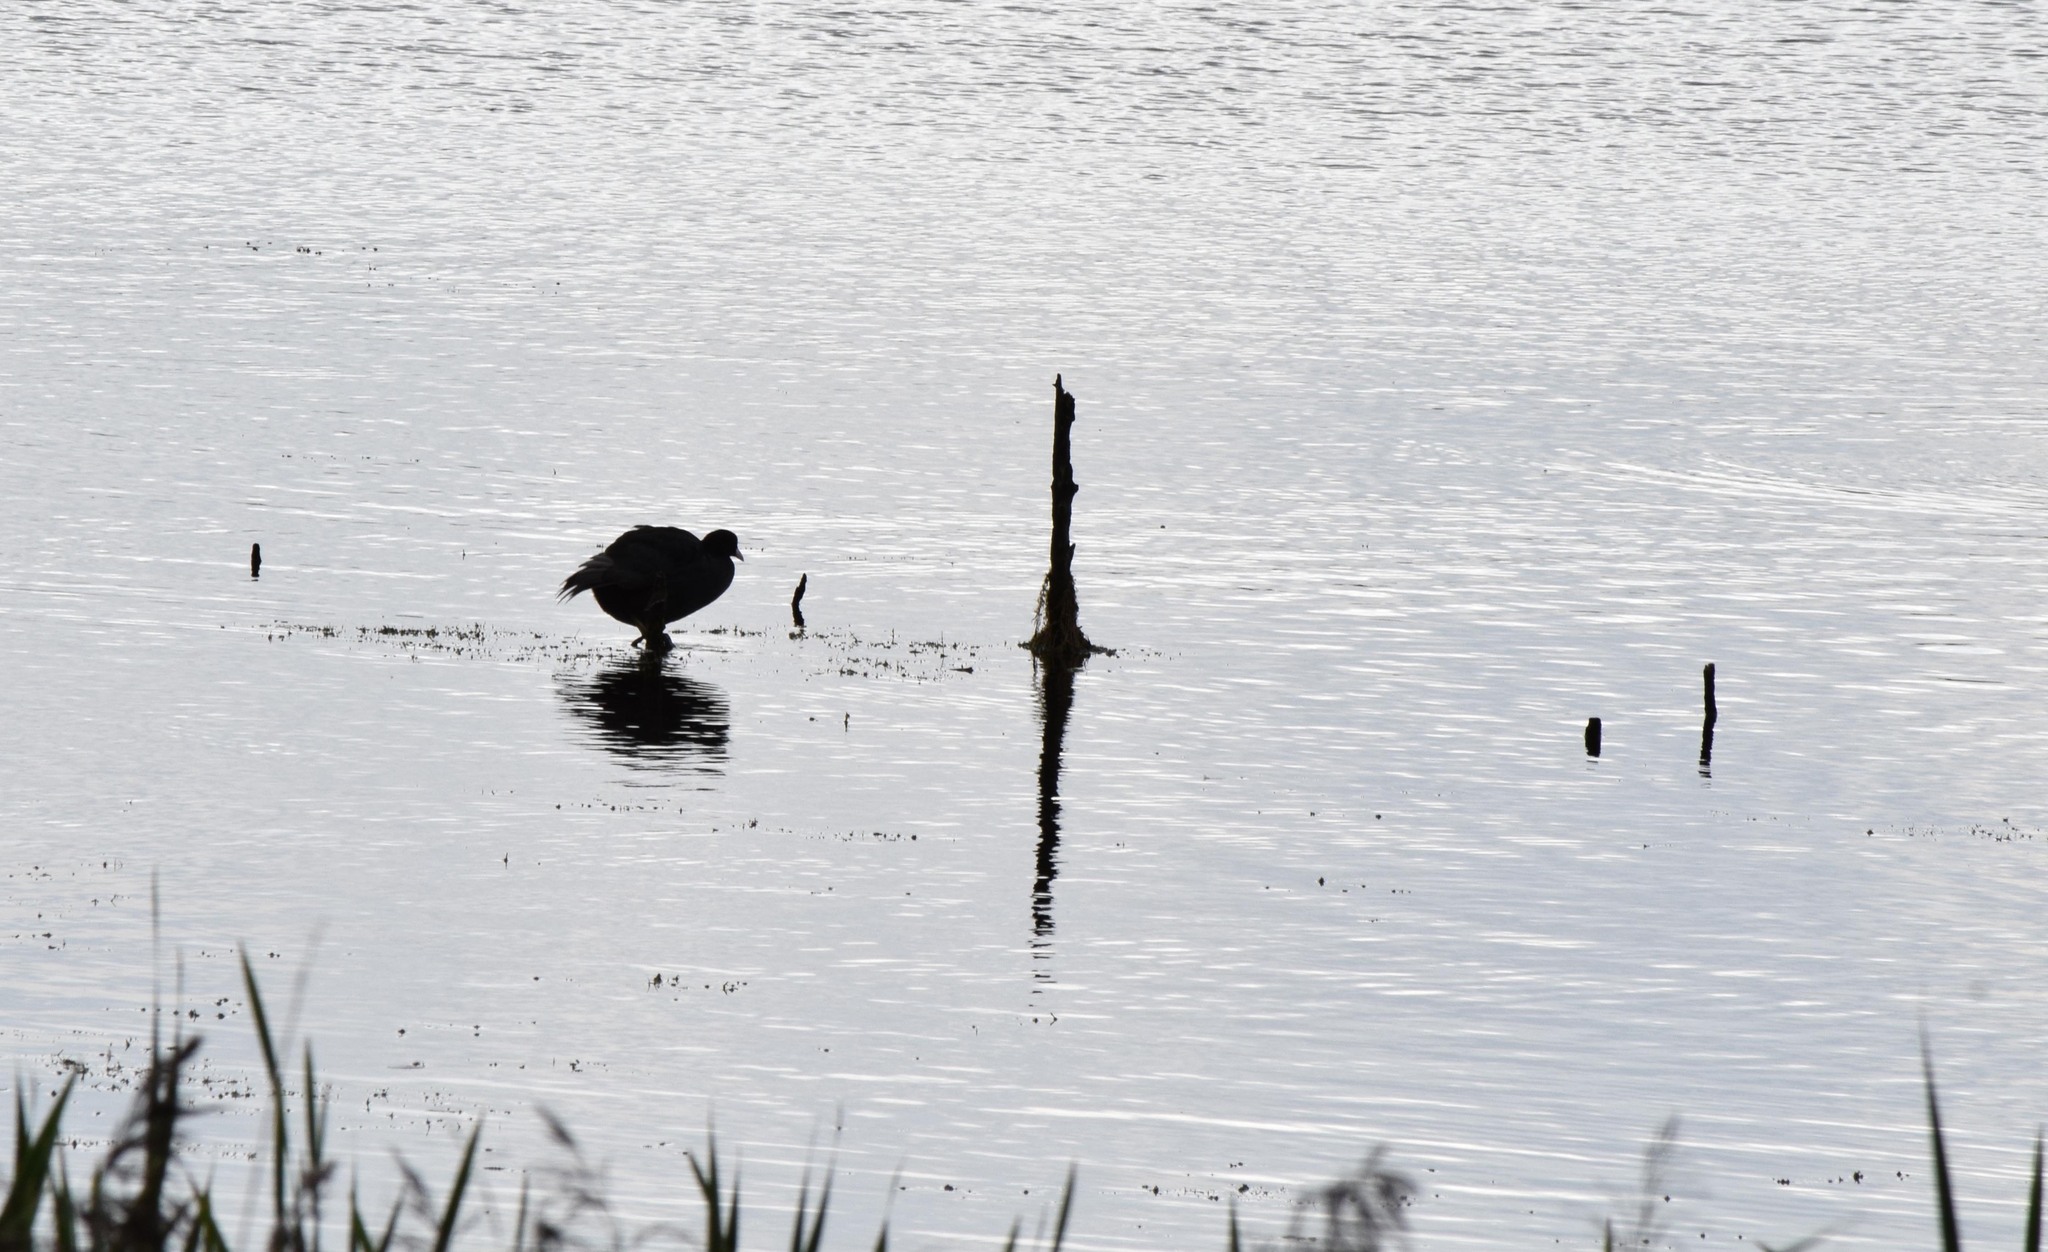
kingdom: Animalia
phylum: Chordata
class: Aves
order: Gruiformes
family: Rallidae
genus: Fulica
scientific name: Fulica atra
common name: Eurasian coot
